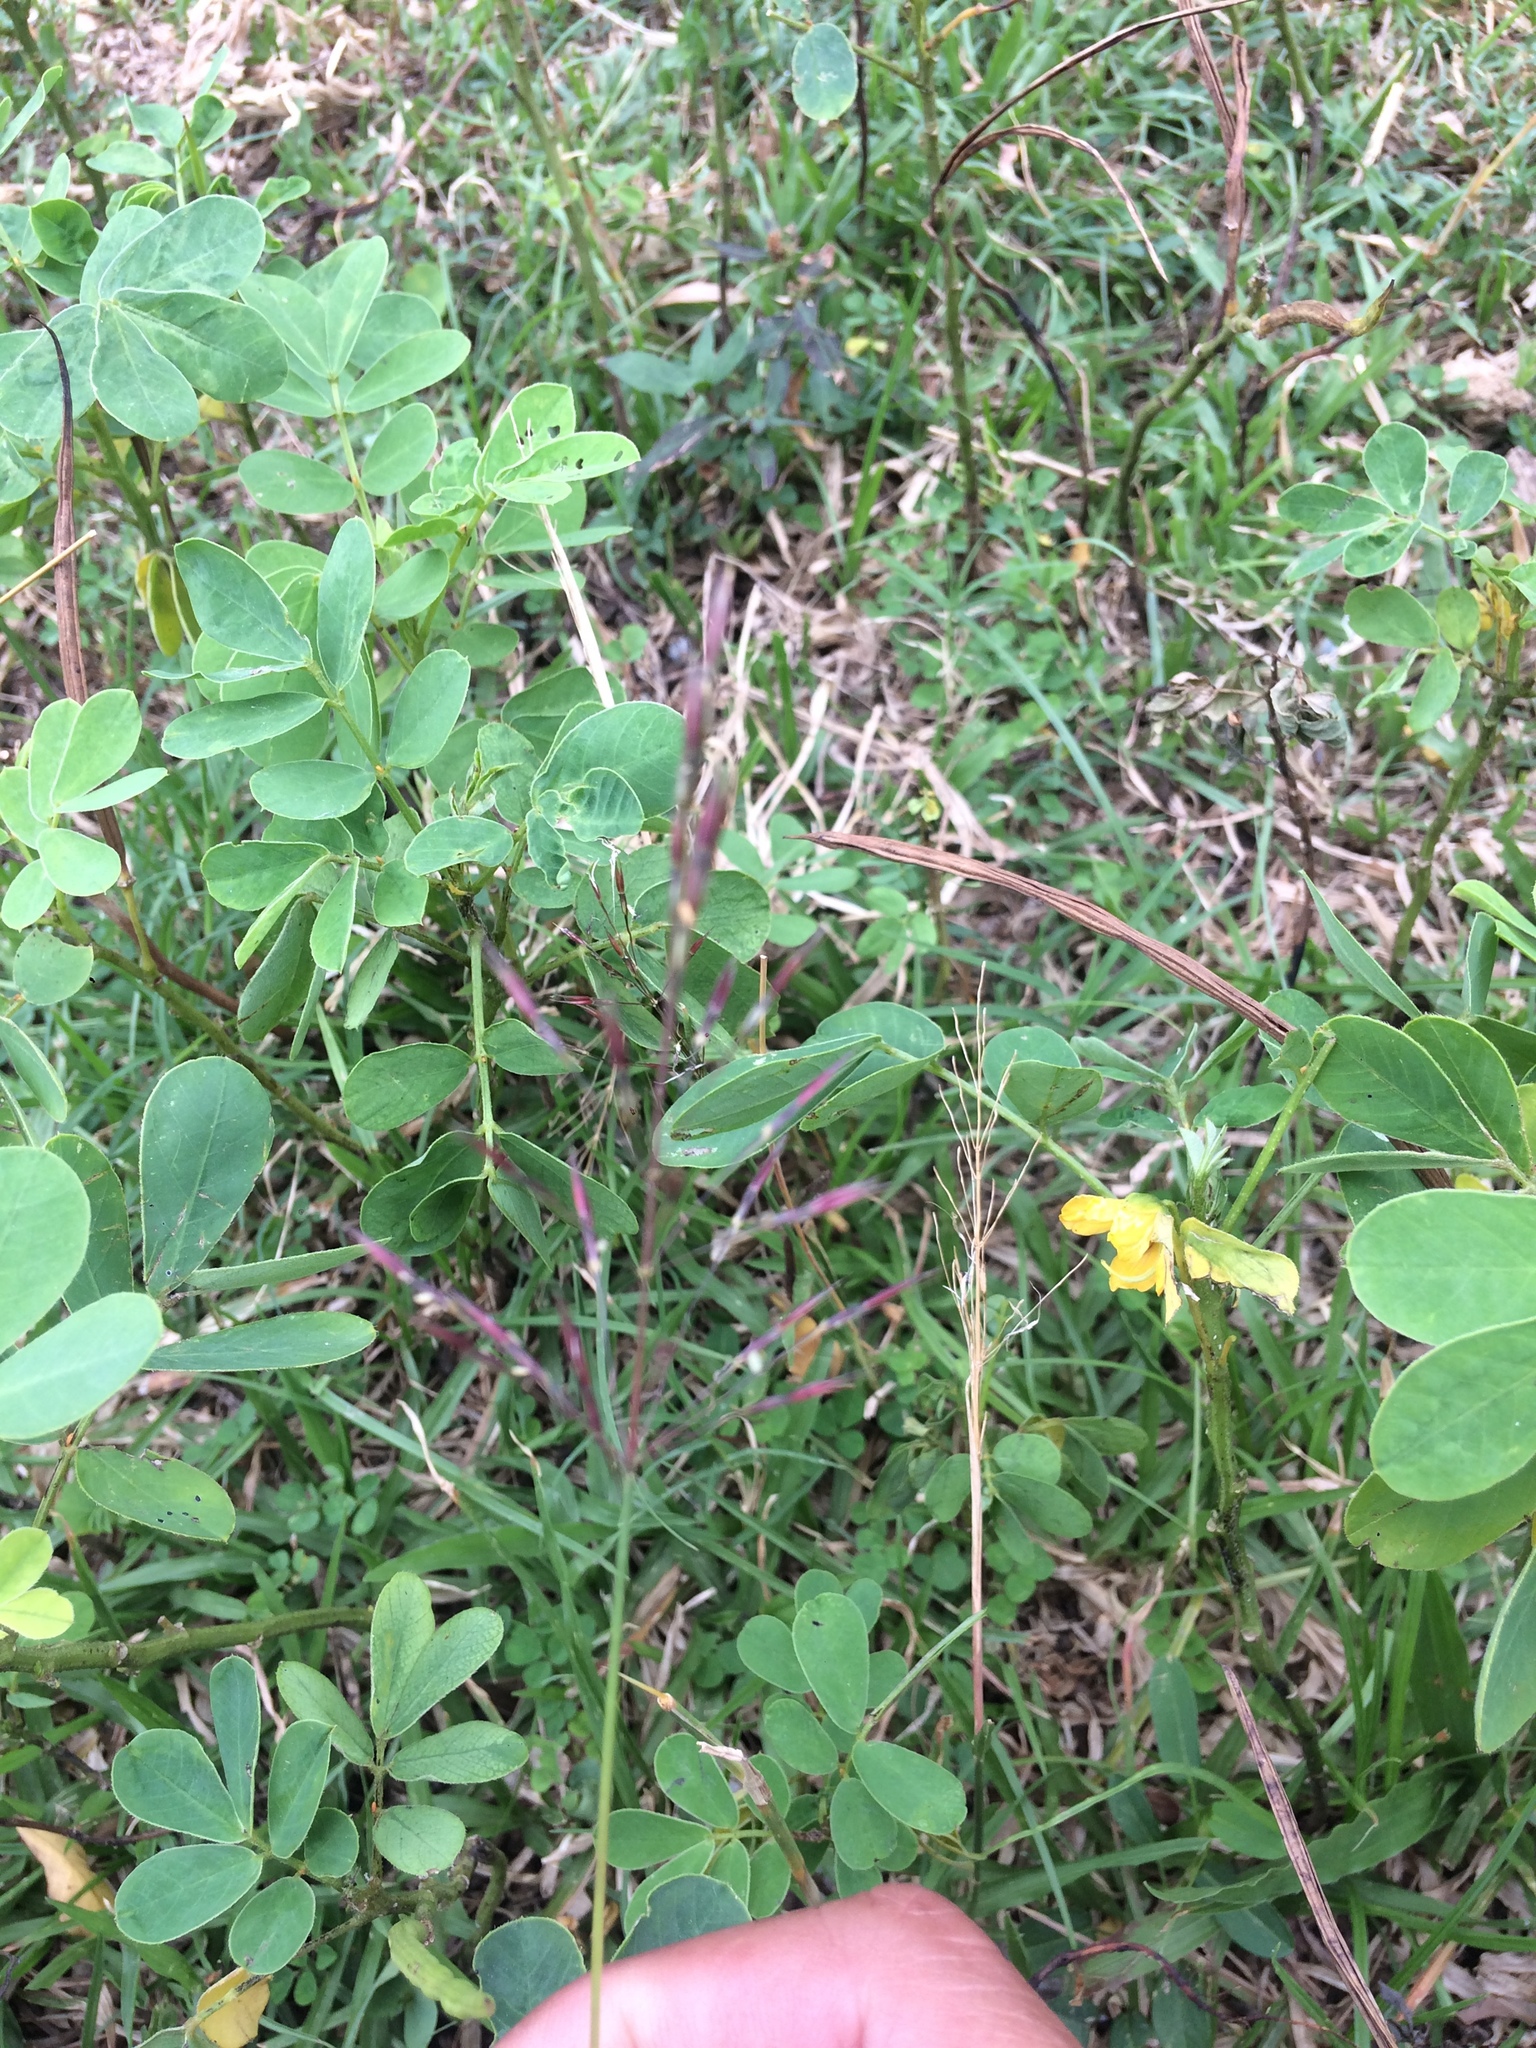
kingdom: Plantae
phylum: Tracheophyta
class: Liliopsida
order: Poales
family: Poaceae
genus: Chrysopogon
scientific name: Chrysopogon aciculatus
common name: Pilipiliula
